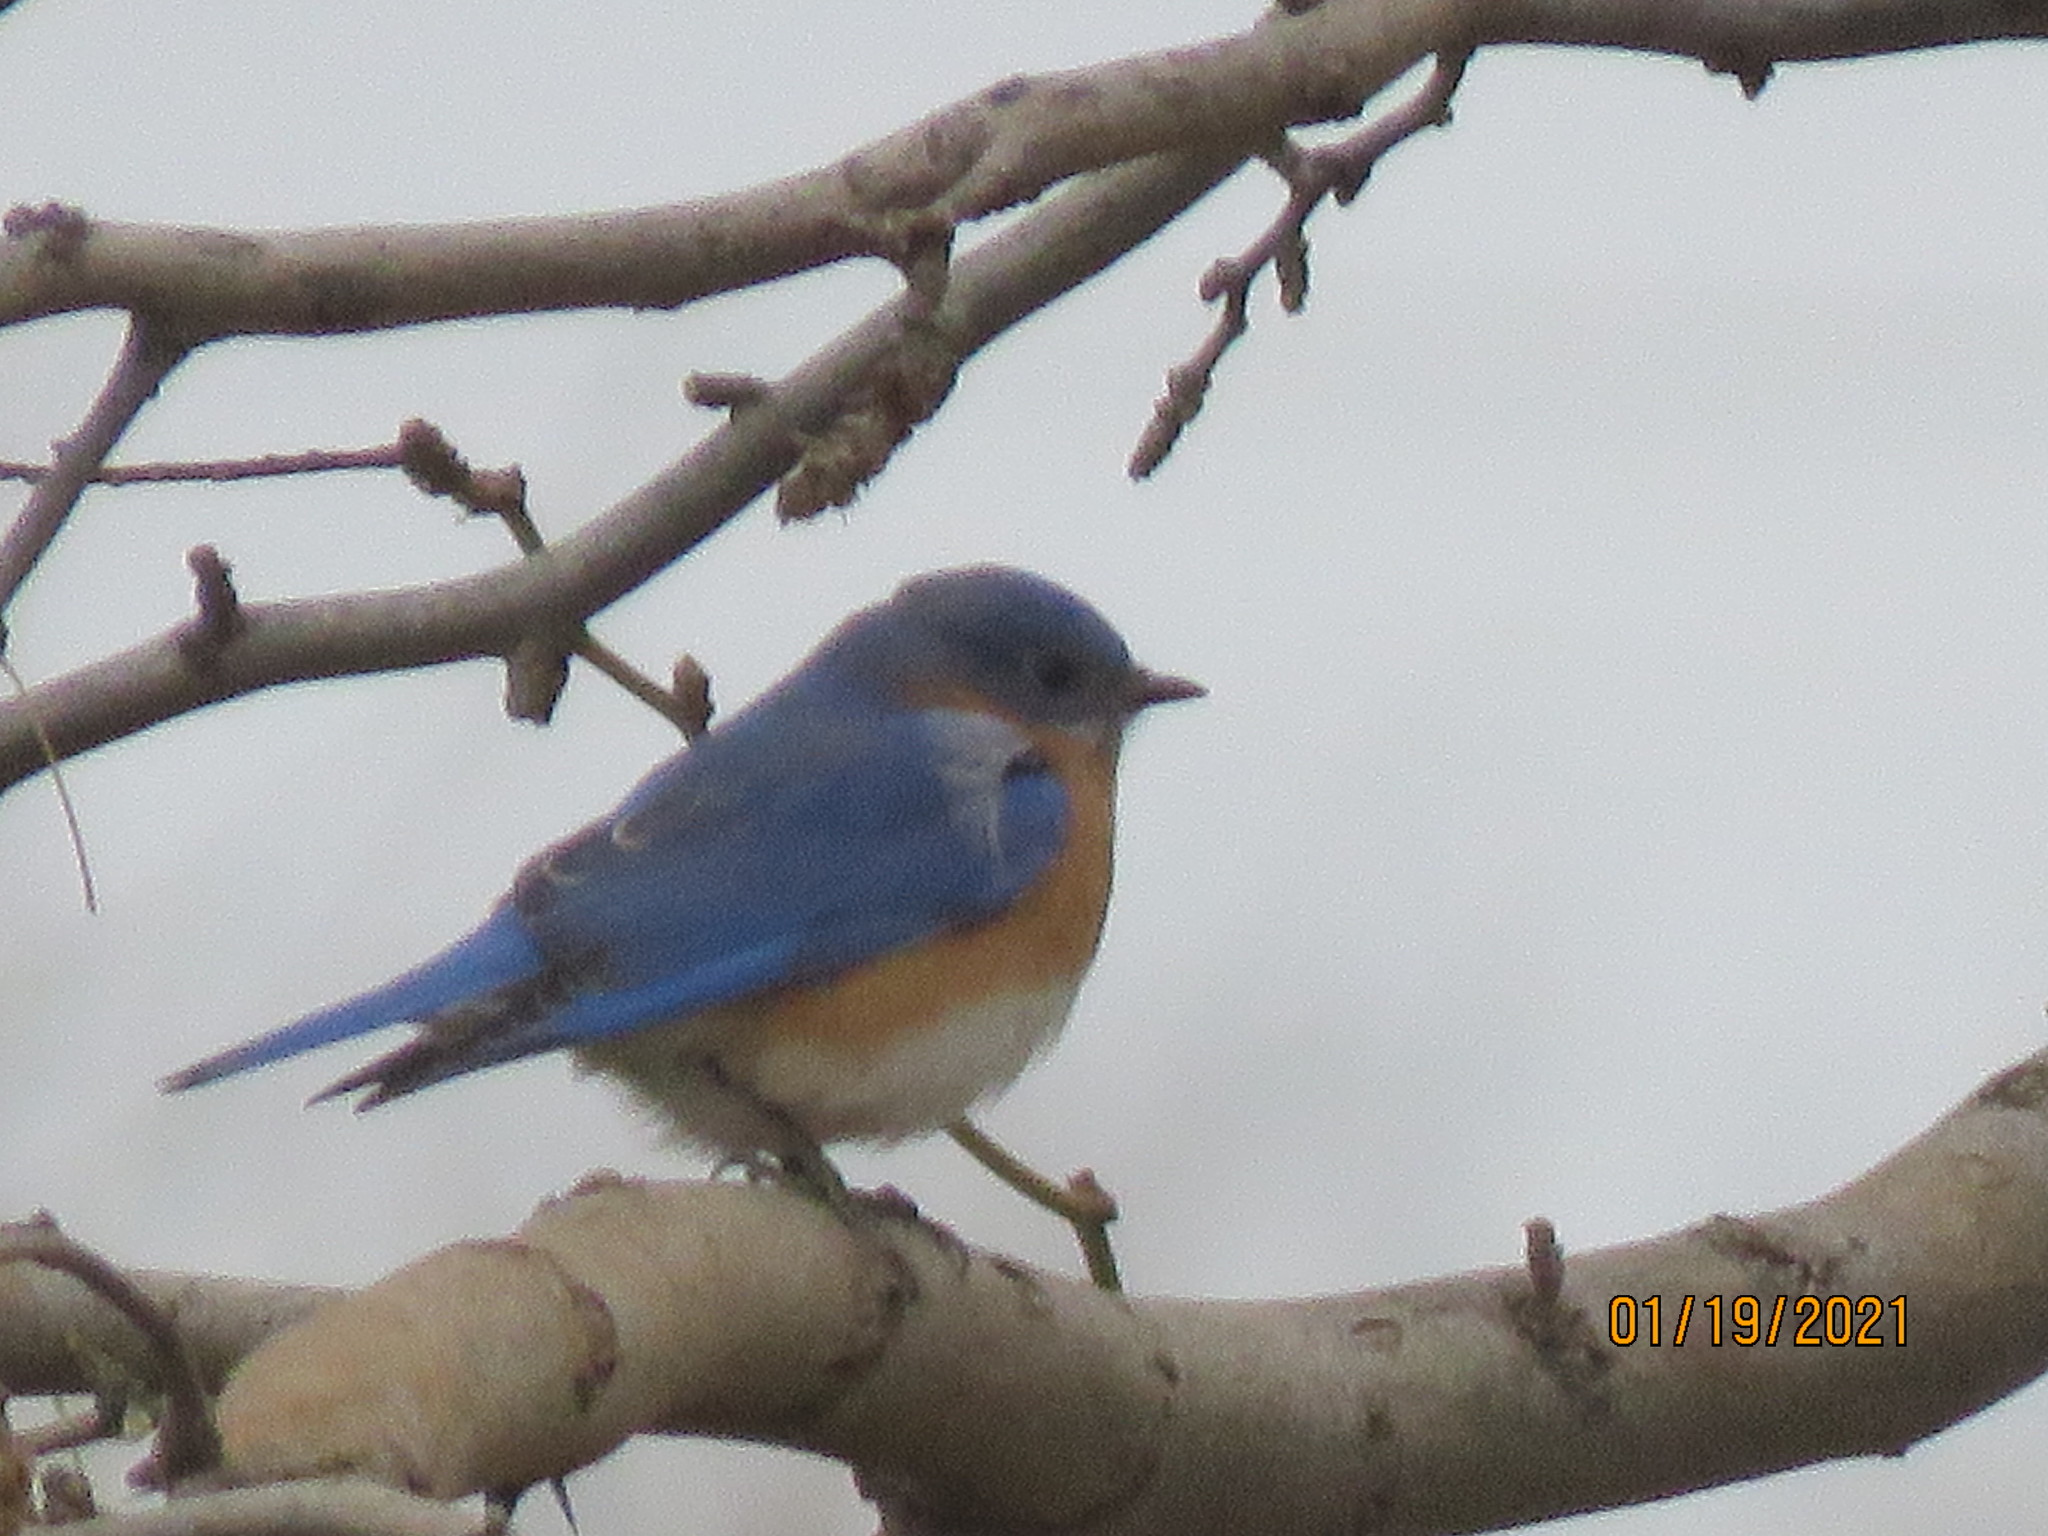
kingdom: Animalia
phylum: Chordata
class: Aves
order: Passeriformes
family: Turdidae
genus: Sialia
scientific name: Sialia sialis
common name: Eastern bluebird
